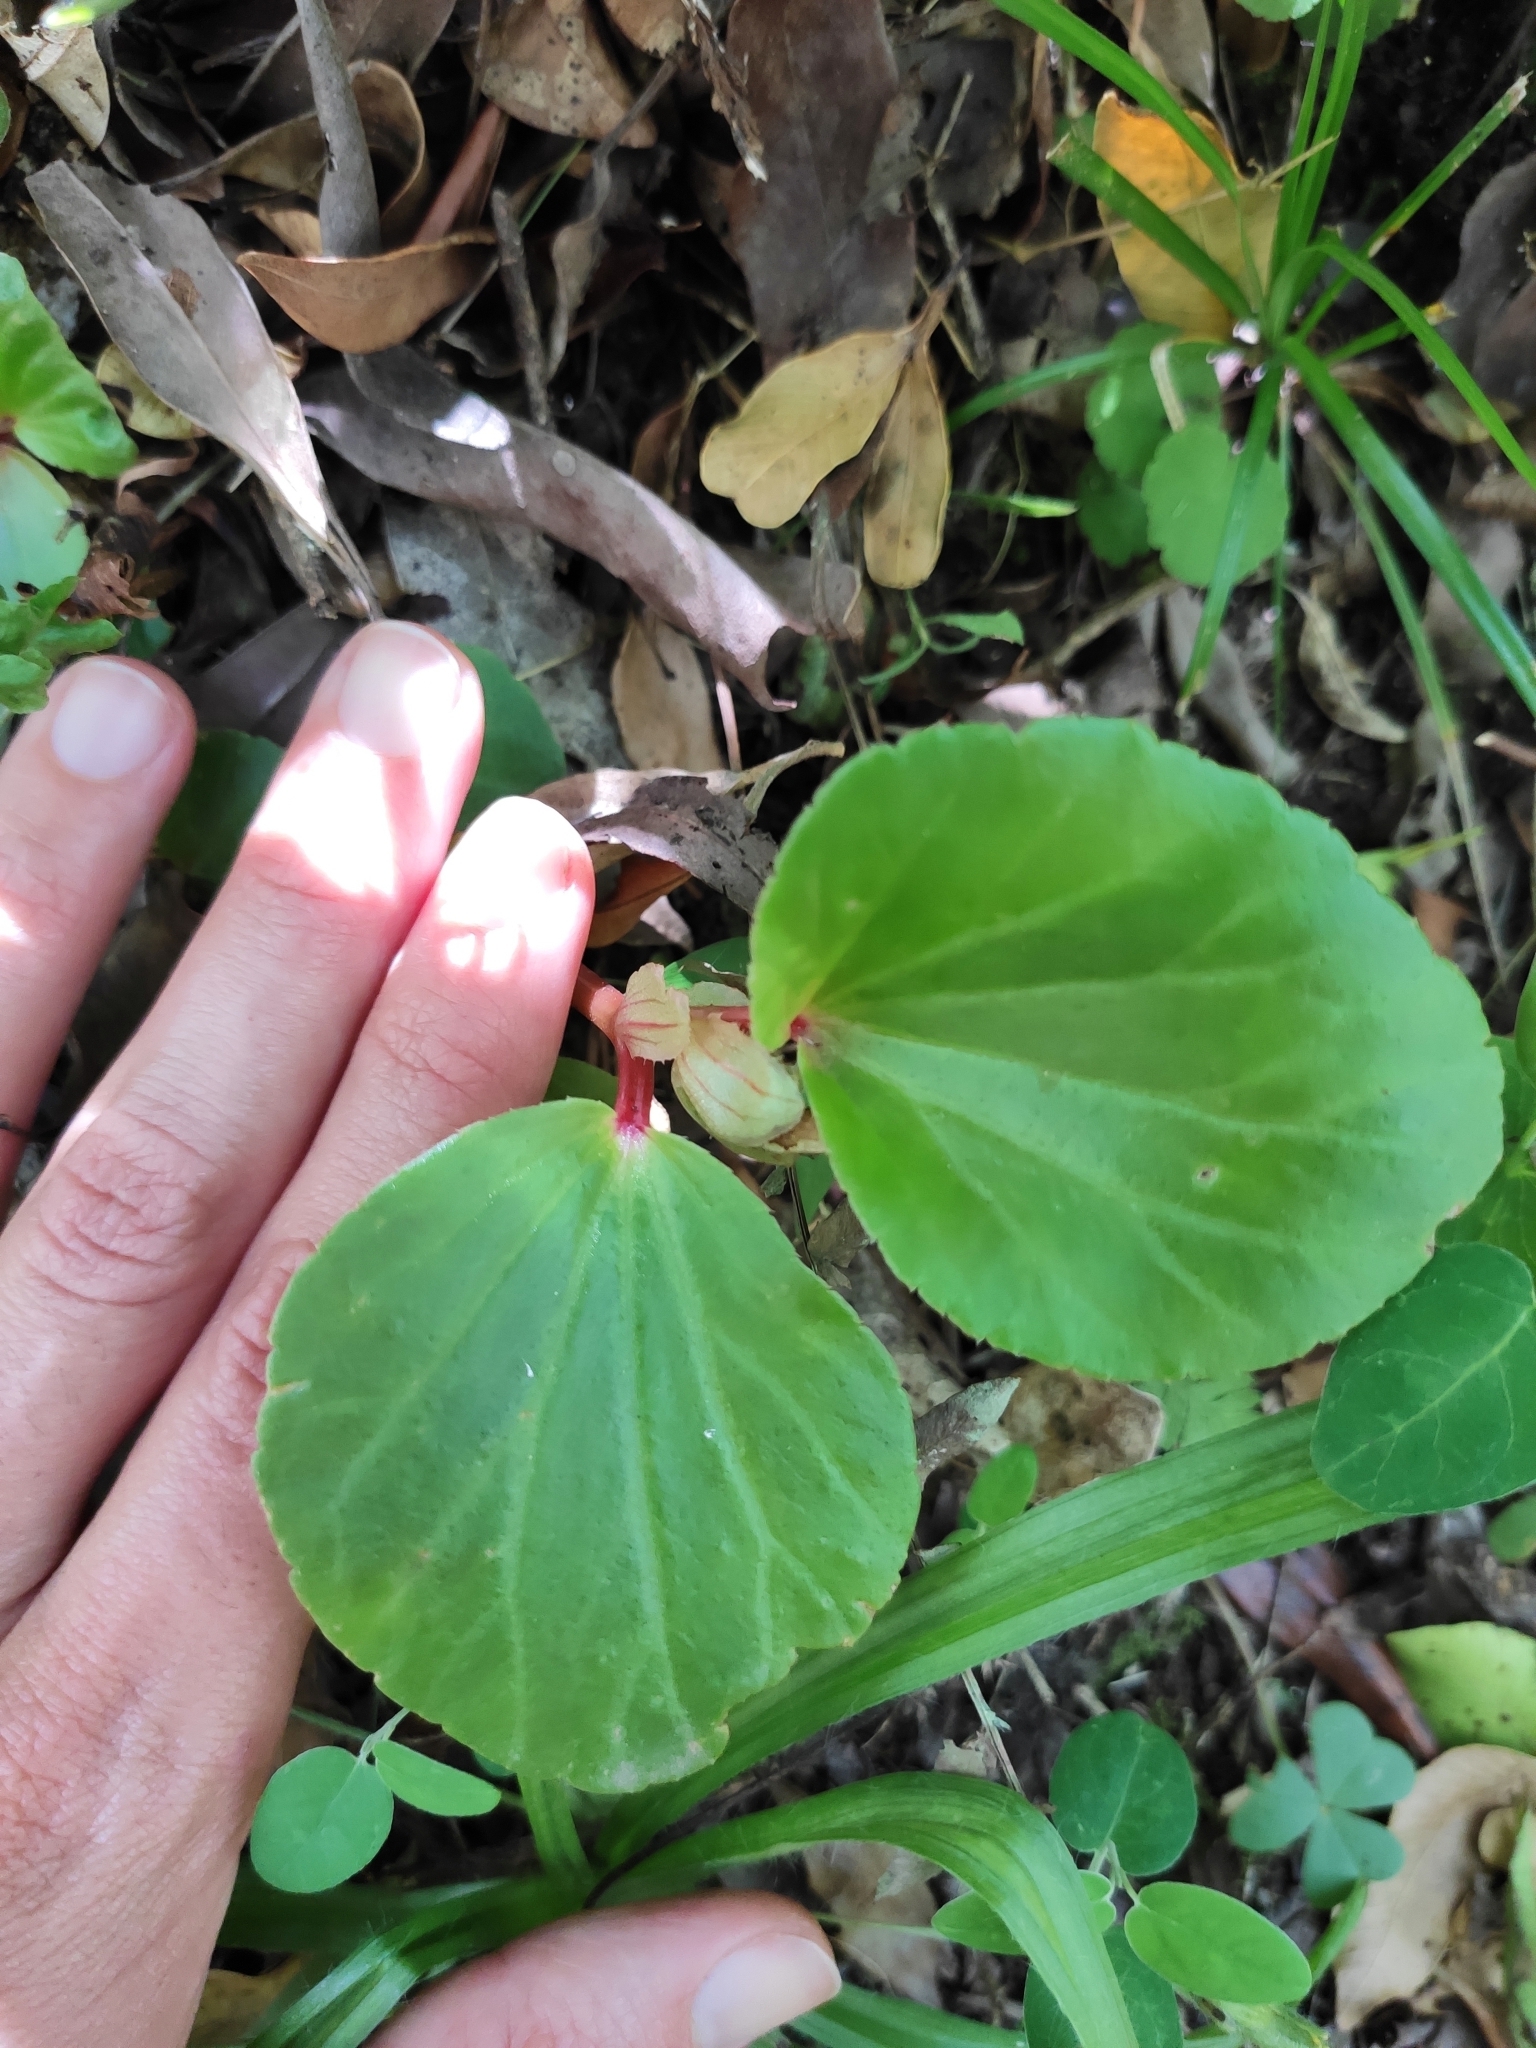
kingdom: Plantae
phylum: Tracheophyta
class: Magnoliopsida
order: Cucurbitales
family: Begoniaceae
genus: Begonia
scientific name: Begonia cucullata
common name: Clubbed begonia
